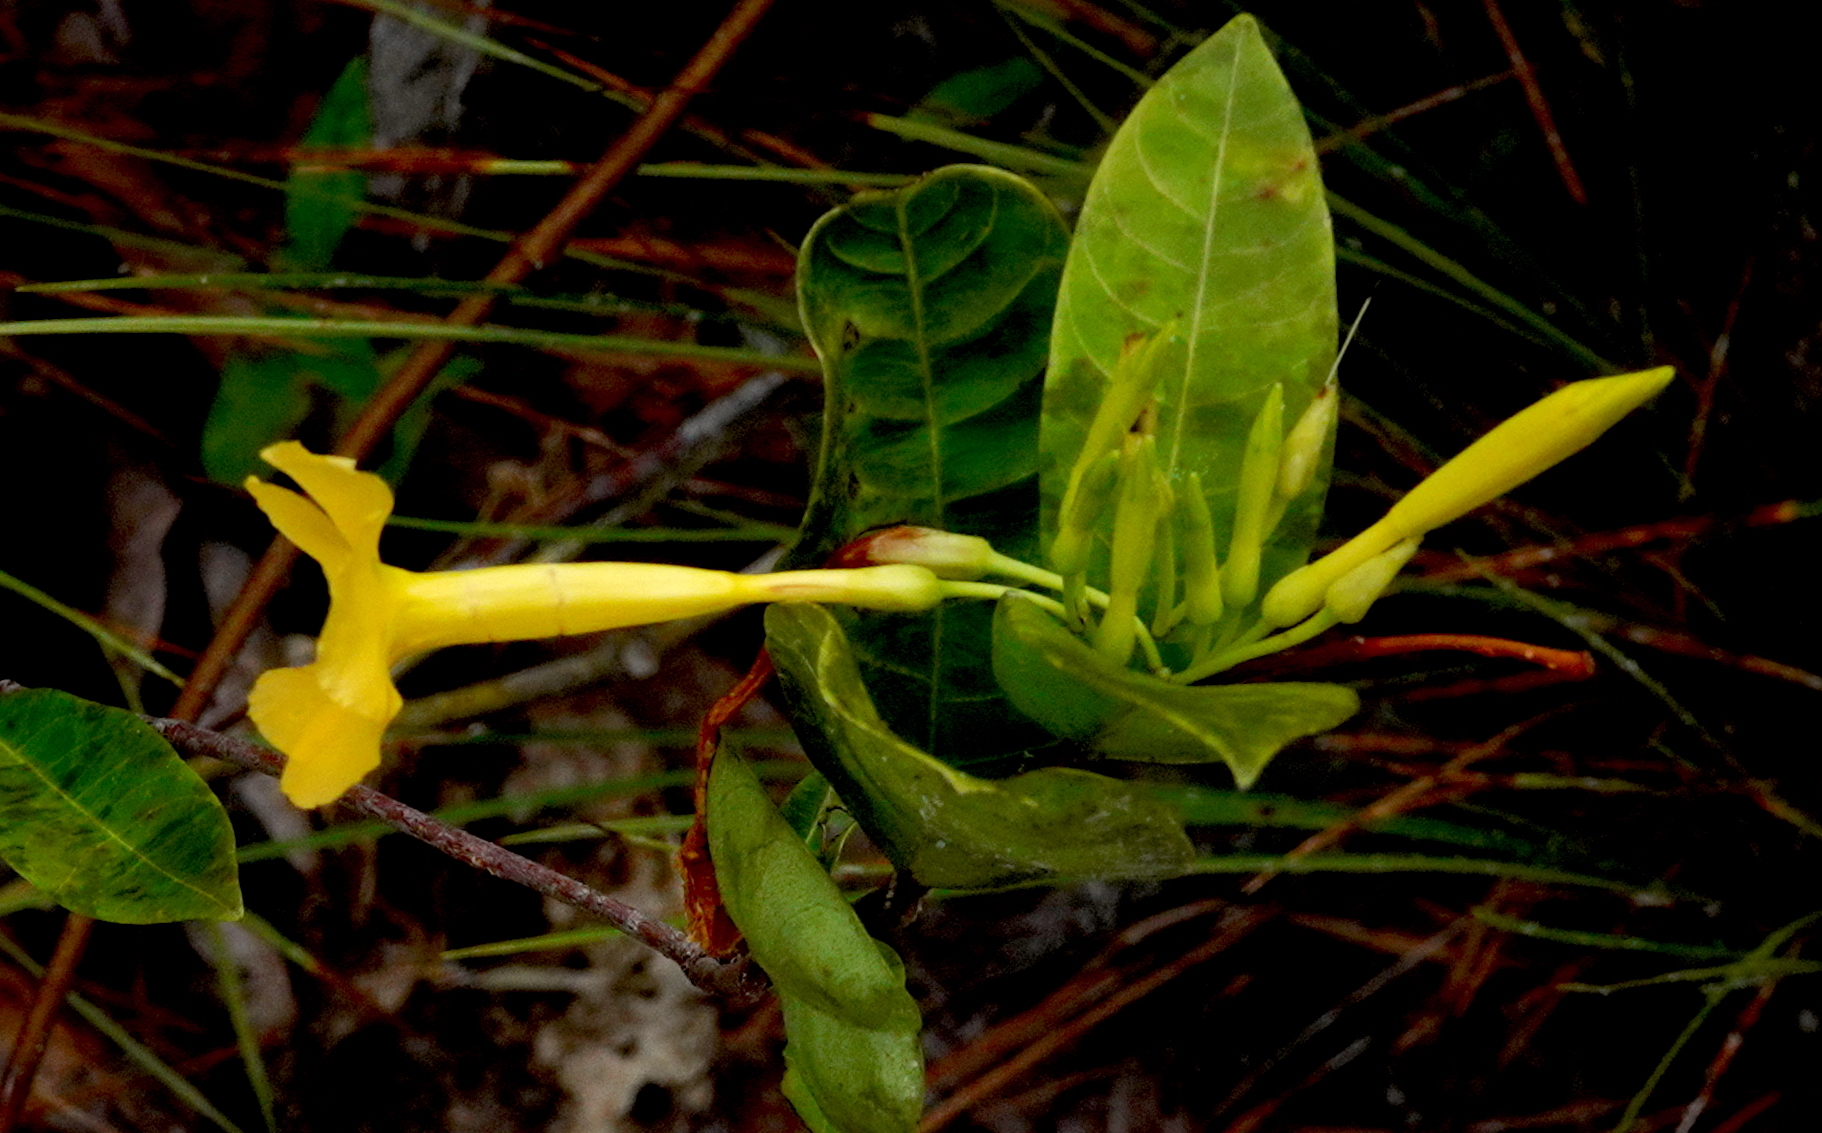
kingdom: Plantae
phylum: Tracheophyta
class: Magnoliopsida
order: Gentianales
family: Apocynaceae
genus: Odontadenia
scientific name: Odontadenia puncticulosa
